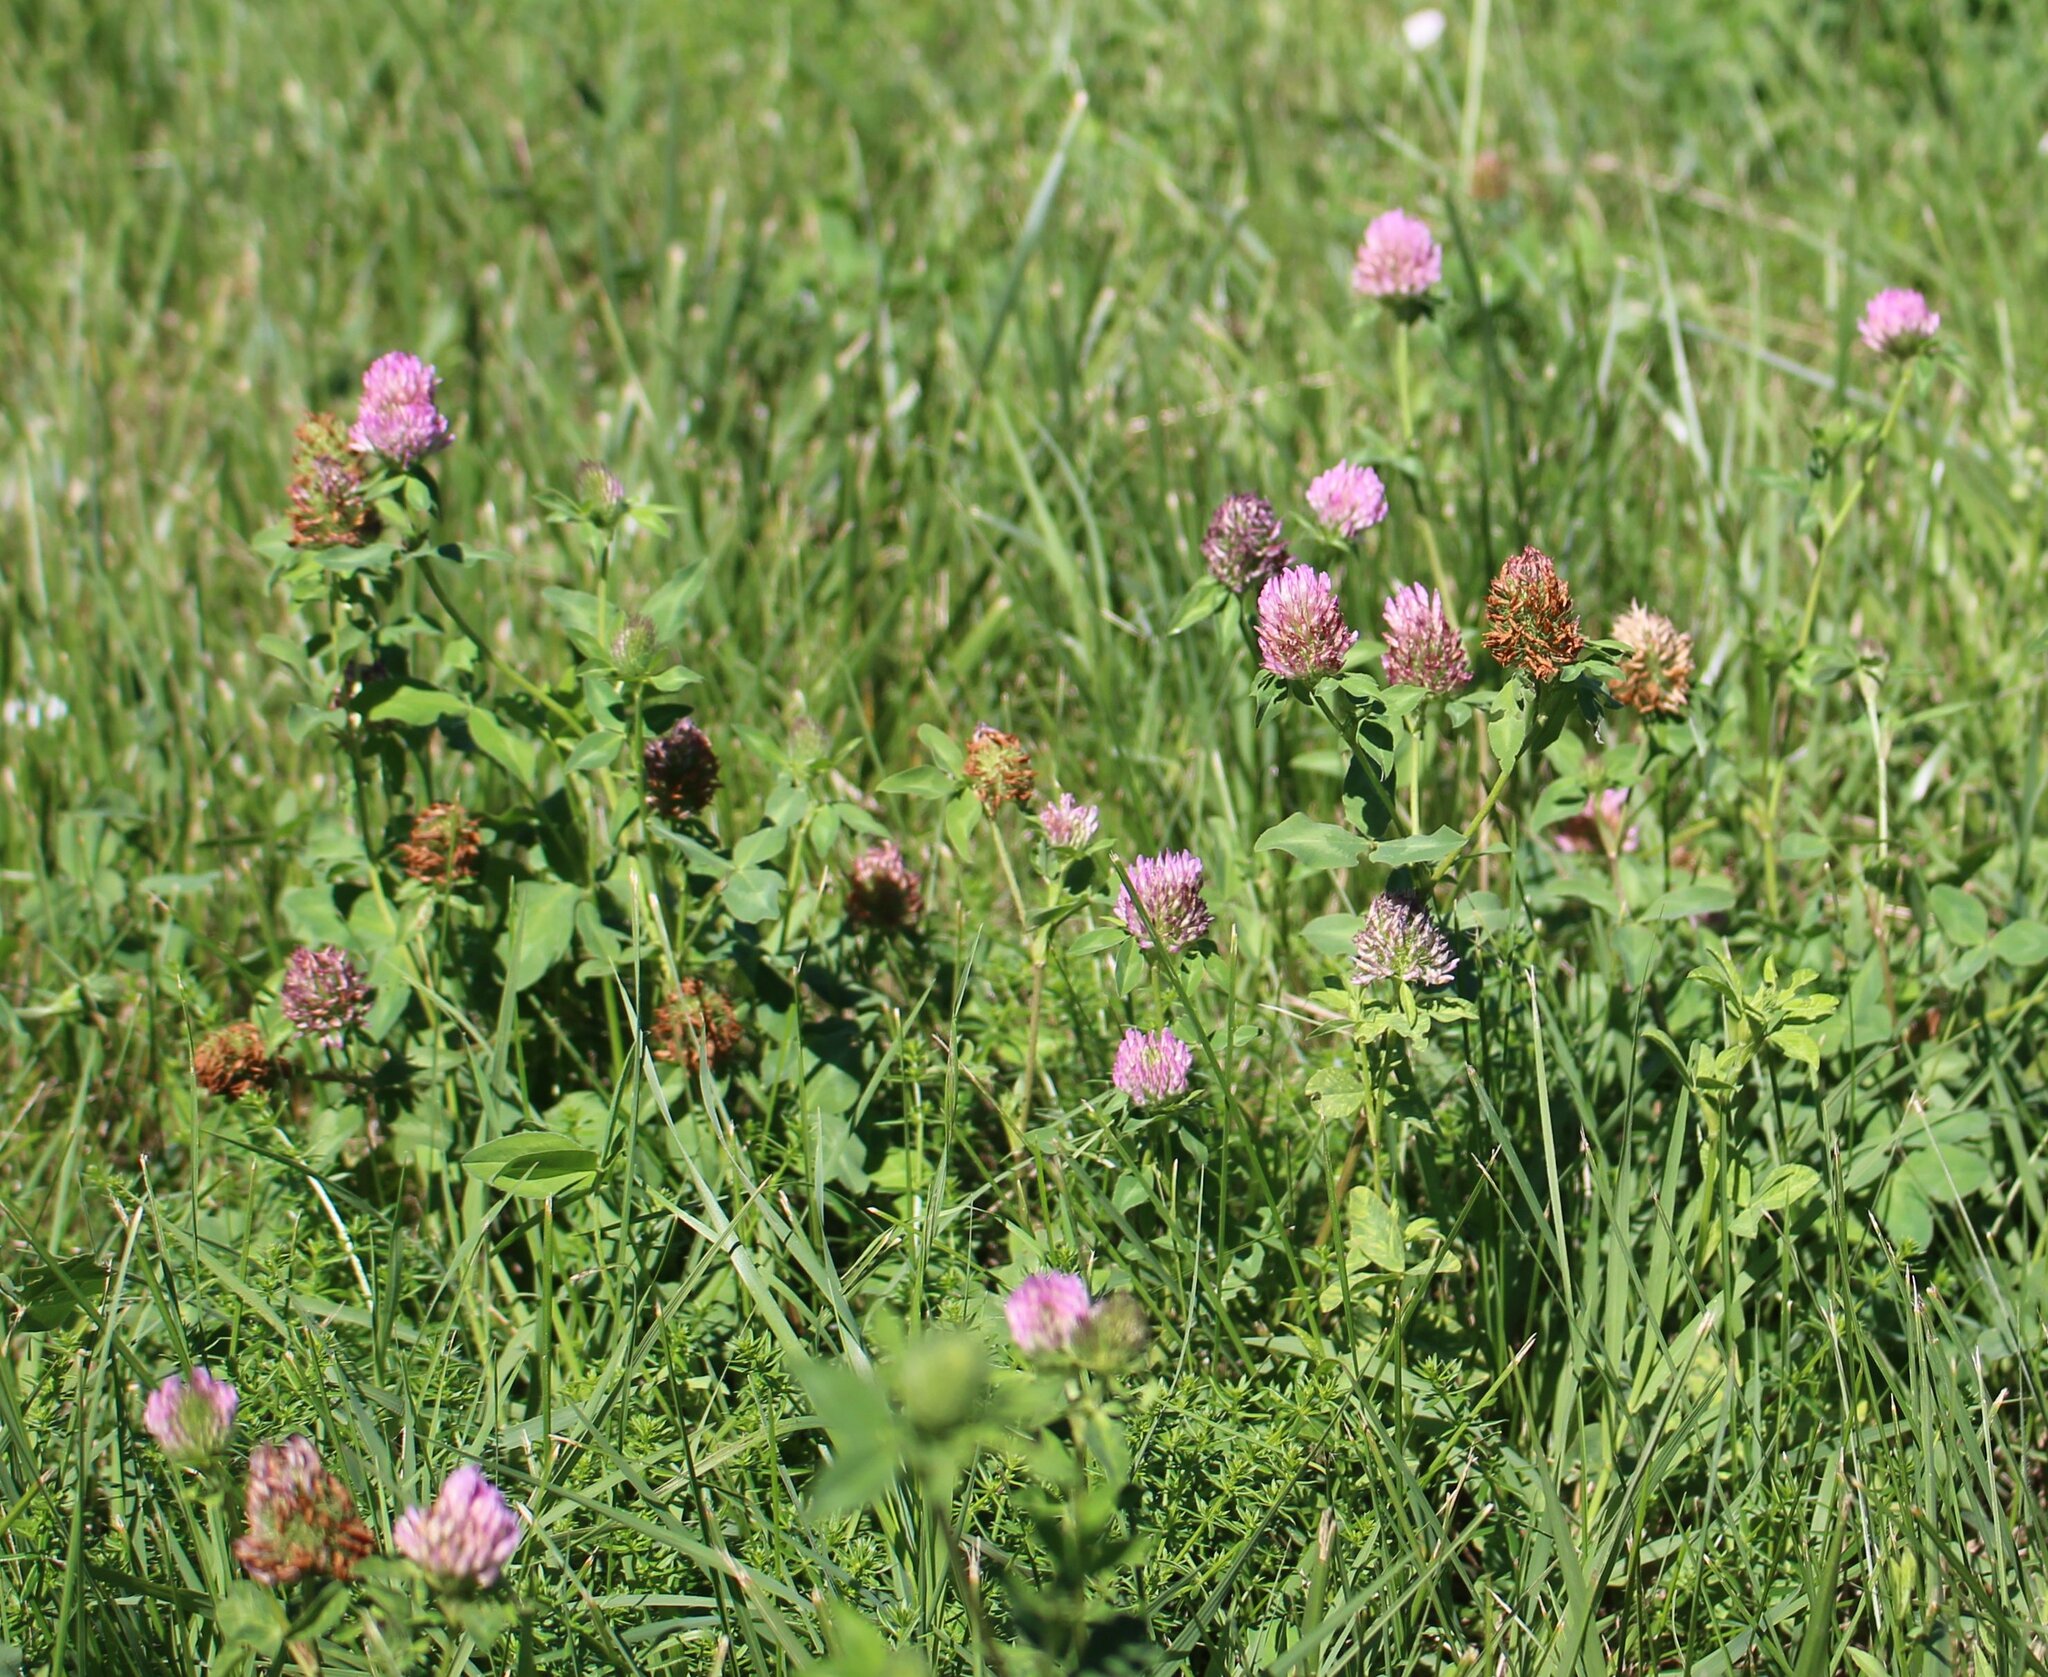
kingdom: Plantae
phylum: Tracheophyta
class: Magnoliopsida
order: Fabales
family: Fabaceae
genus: Trifolium
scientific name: Trifolium pratense
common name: Red clover
